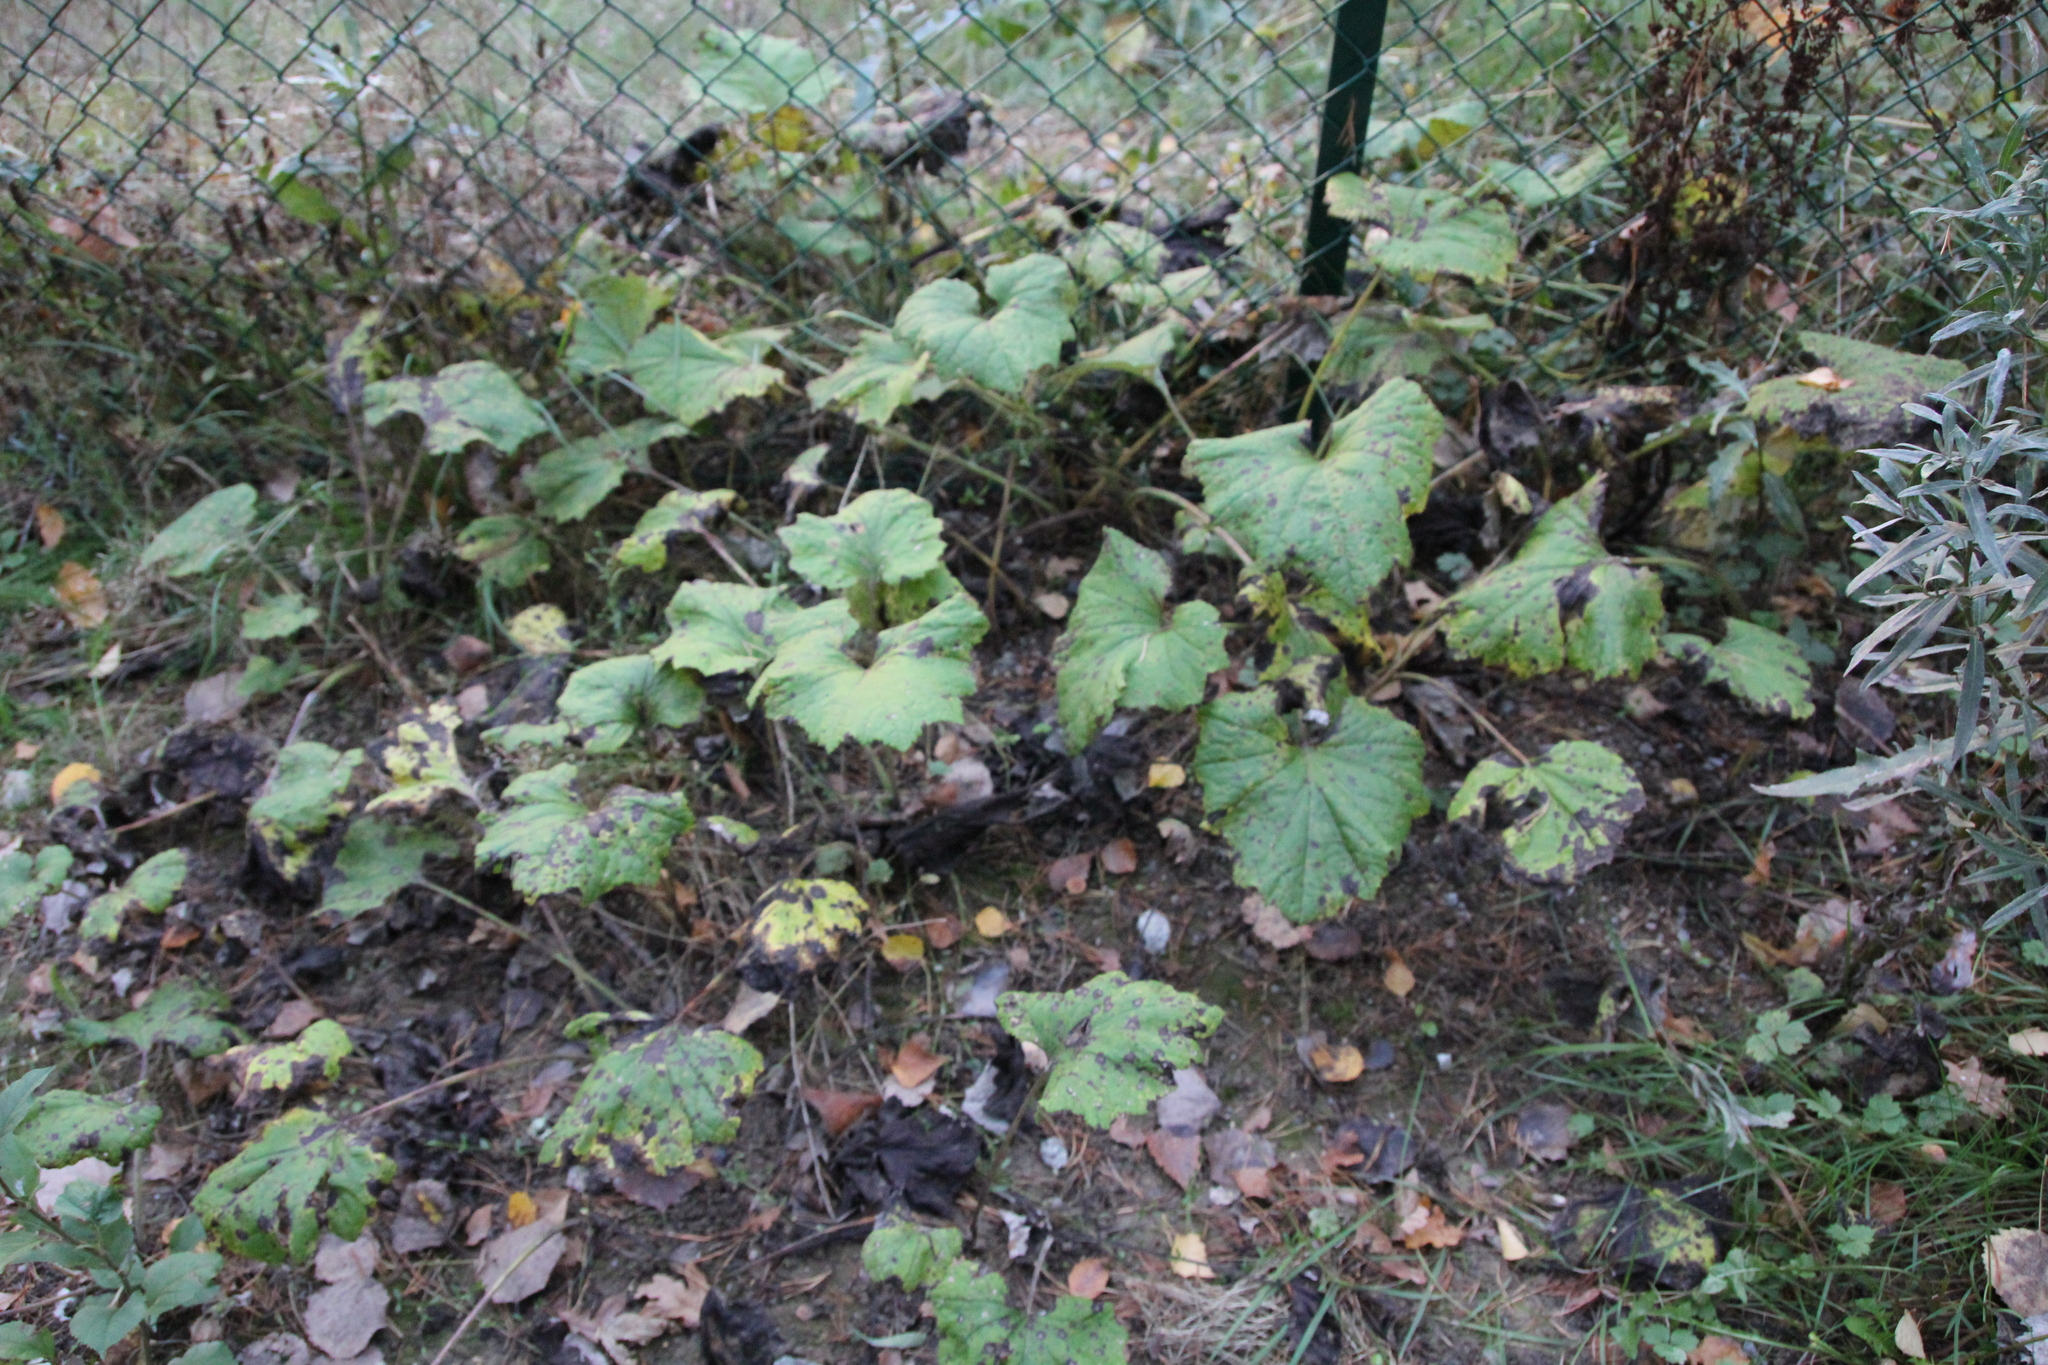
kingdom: Plantae
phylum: Tracheophyta
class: Magnoliopsida
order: Asterales
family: Asteraceae
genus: Tussilago
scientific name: Tussilago farfara
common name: Coltsfoot
